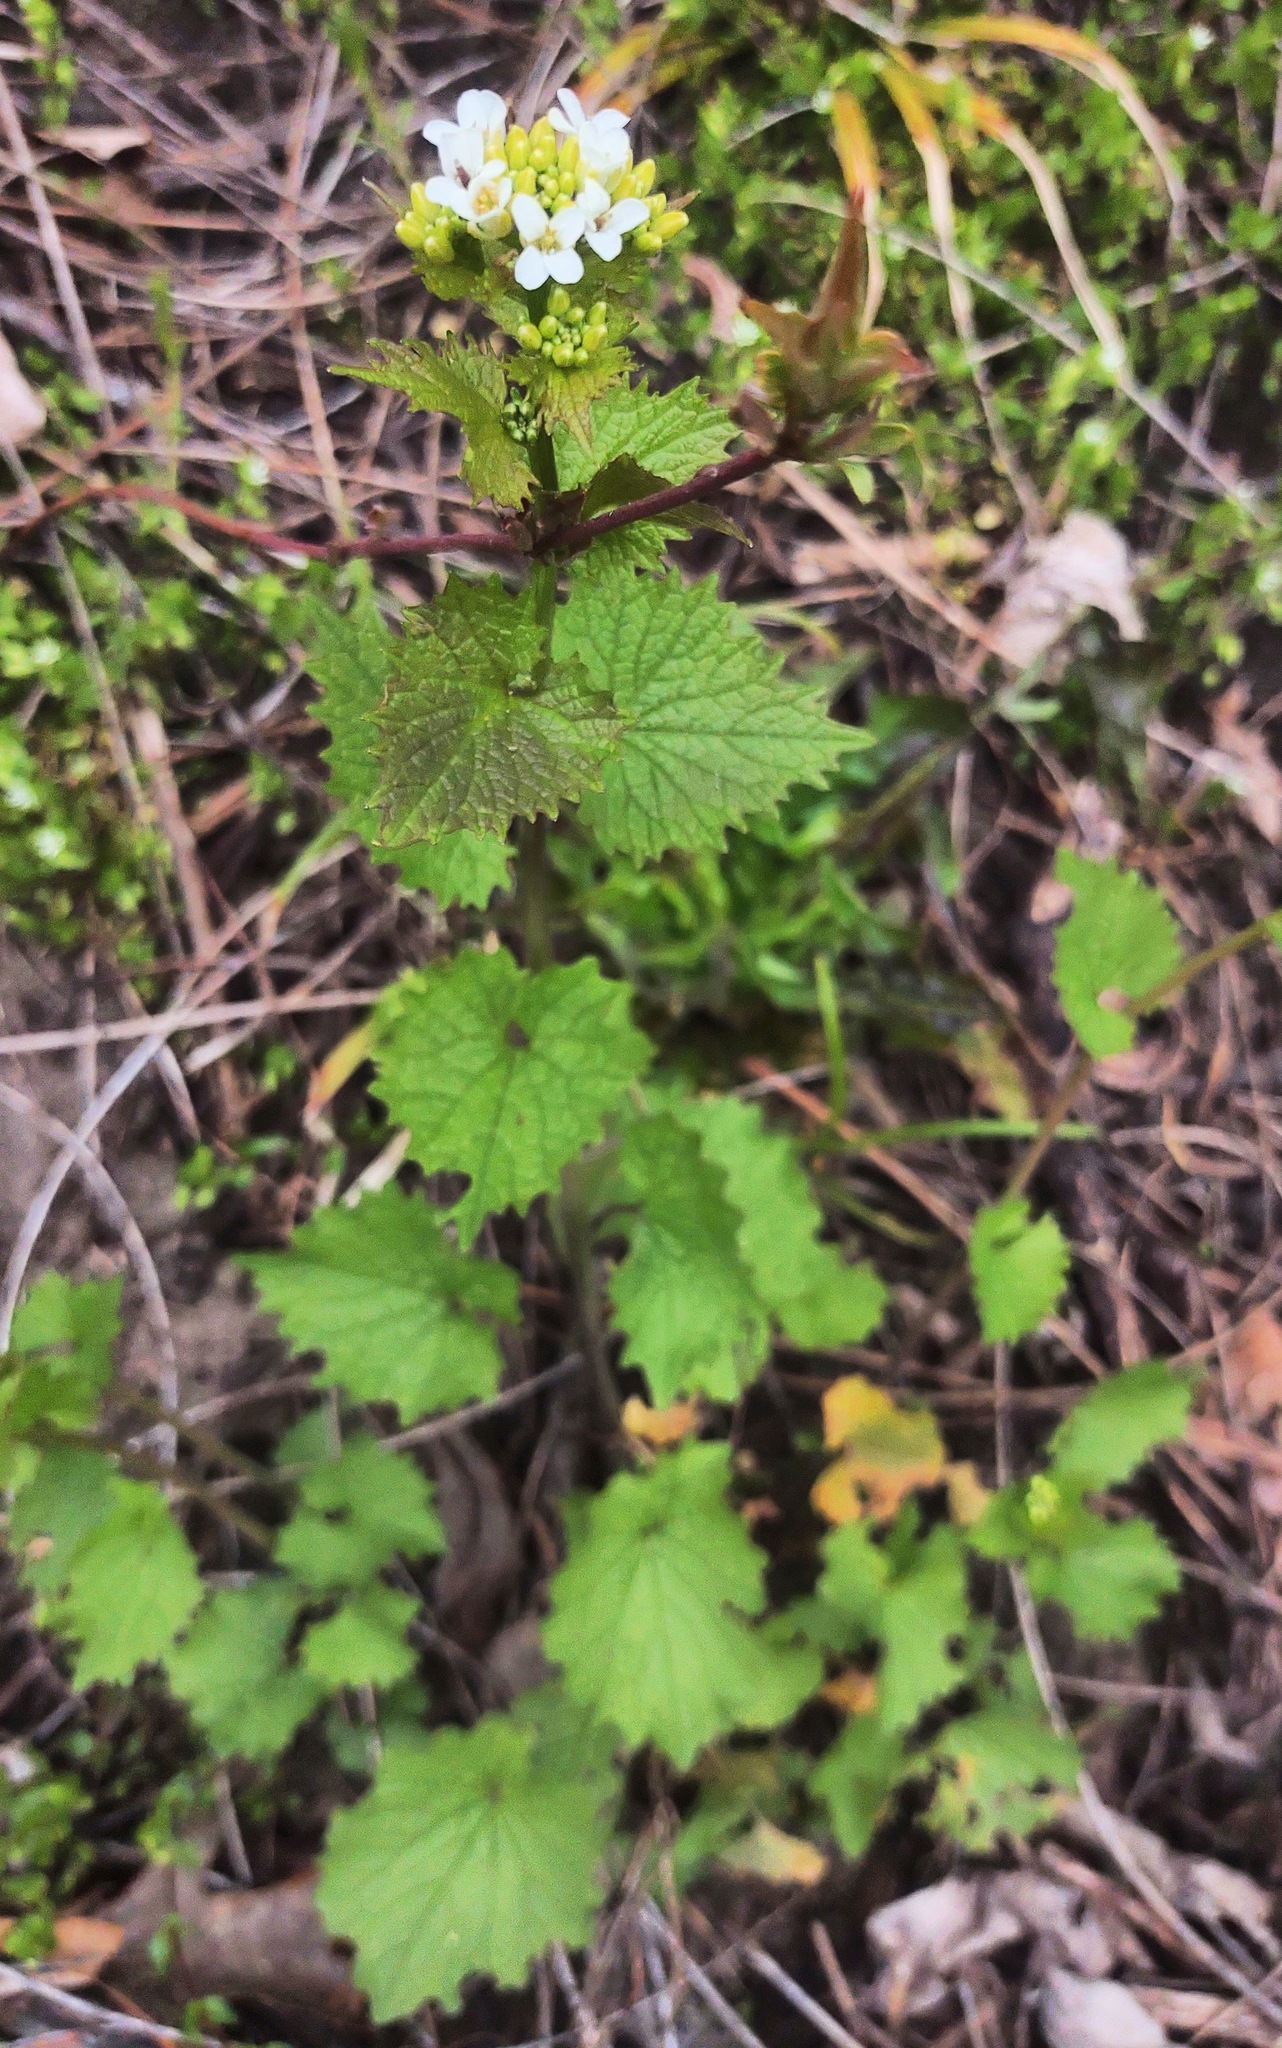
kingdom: Plantae
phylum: Tracheophyta
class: Magnoliopsida
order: Brassicales
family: Brassicaceae
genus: Alliaria
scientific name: Alliaria petiolata
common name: Garlic mustard
